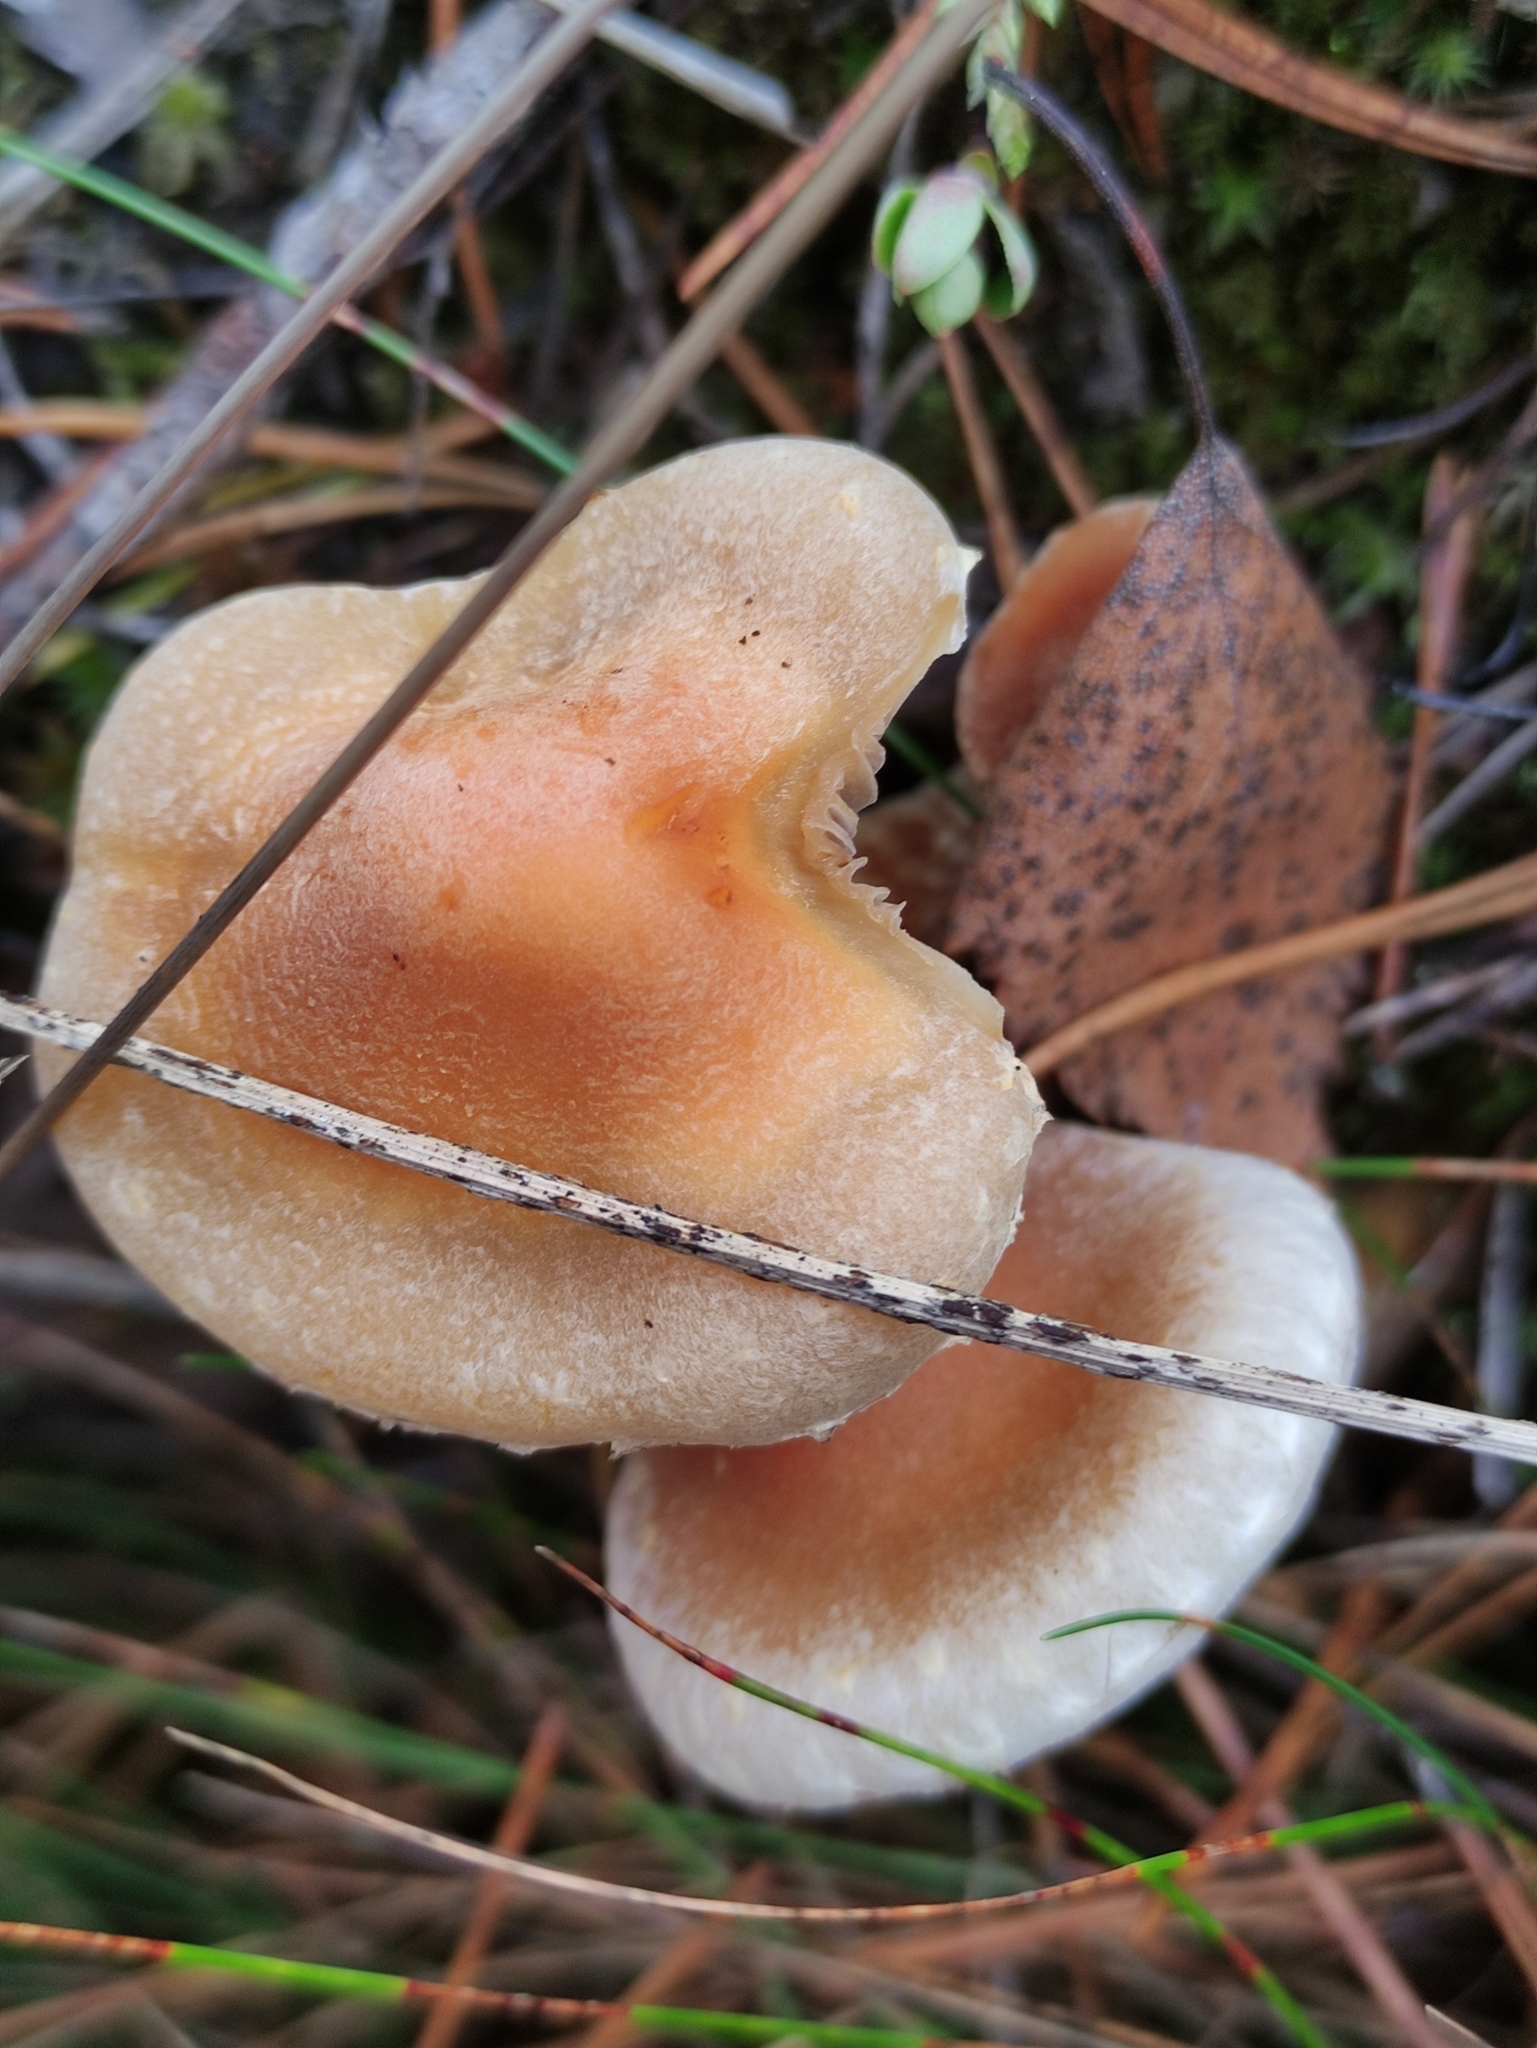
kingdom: Fungi
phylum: Basidiomycota
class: Agaricomycetes
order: Agaricales
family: Strophariaceae
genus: Hypholoma
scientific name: Hypholoma capnoides
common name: Conifer tuft
